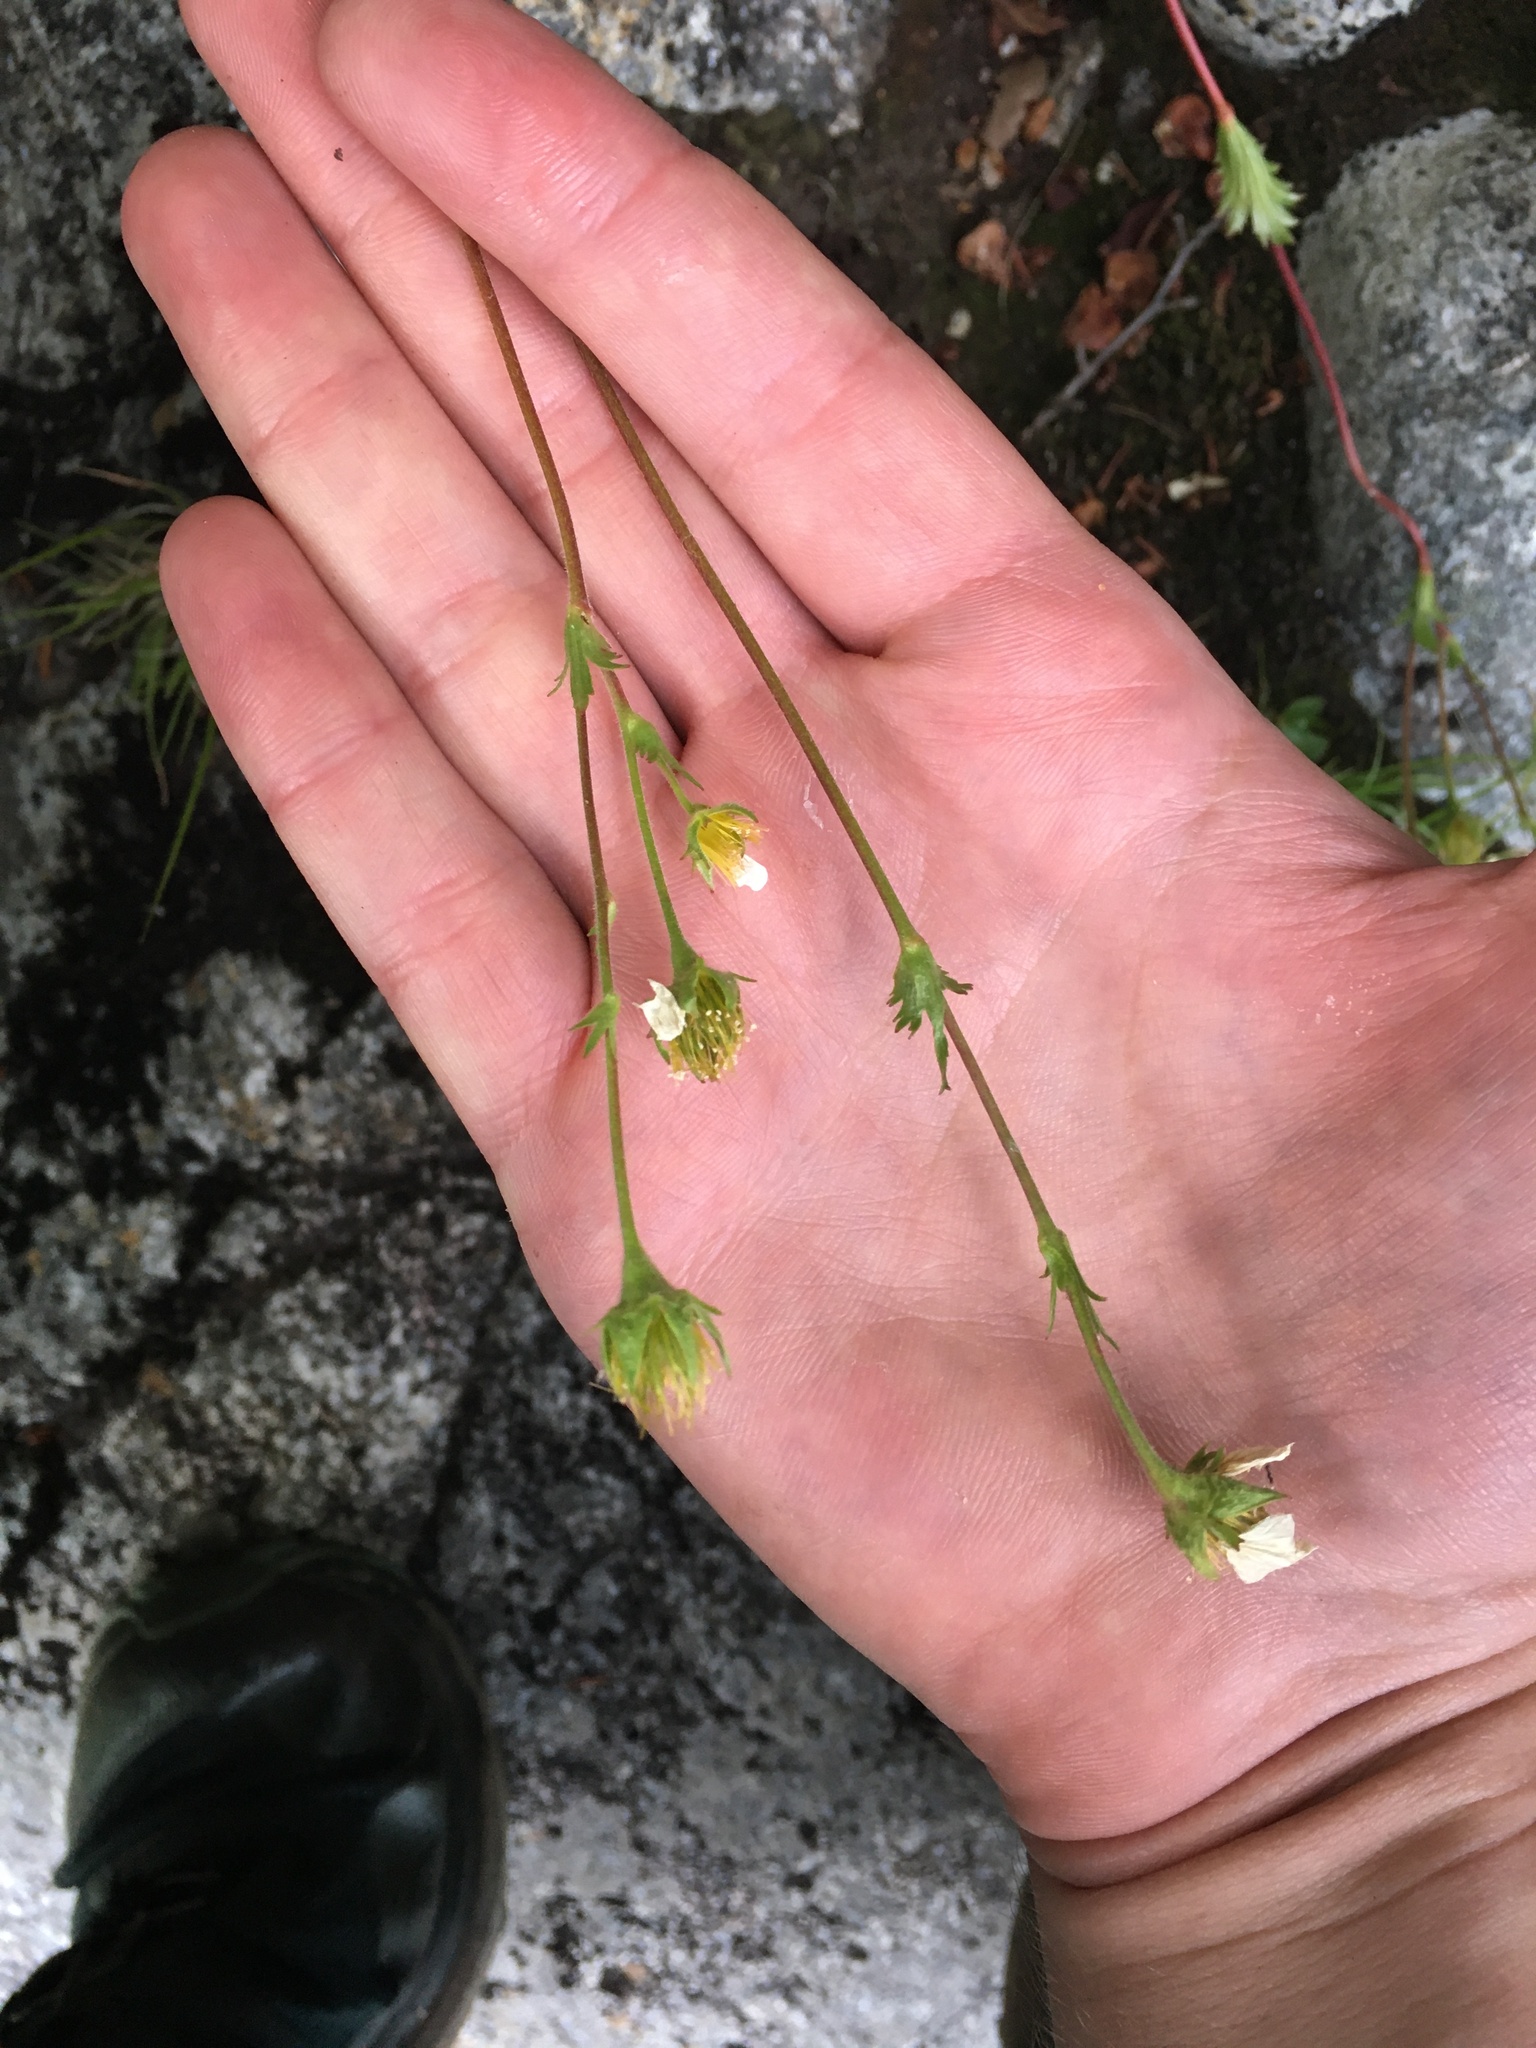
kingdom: Plantae
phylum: Tracheophyta
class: Magnoliopsida
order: Rosales
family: Rosaceae
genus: Geum
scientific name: Geum peckii
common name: Eastern mountain avens
